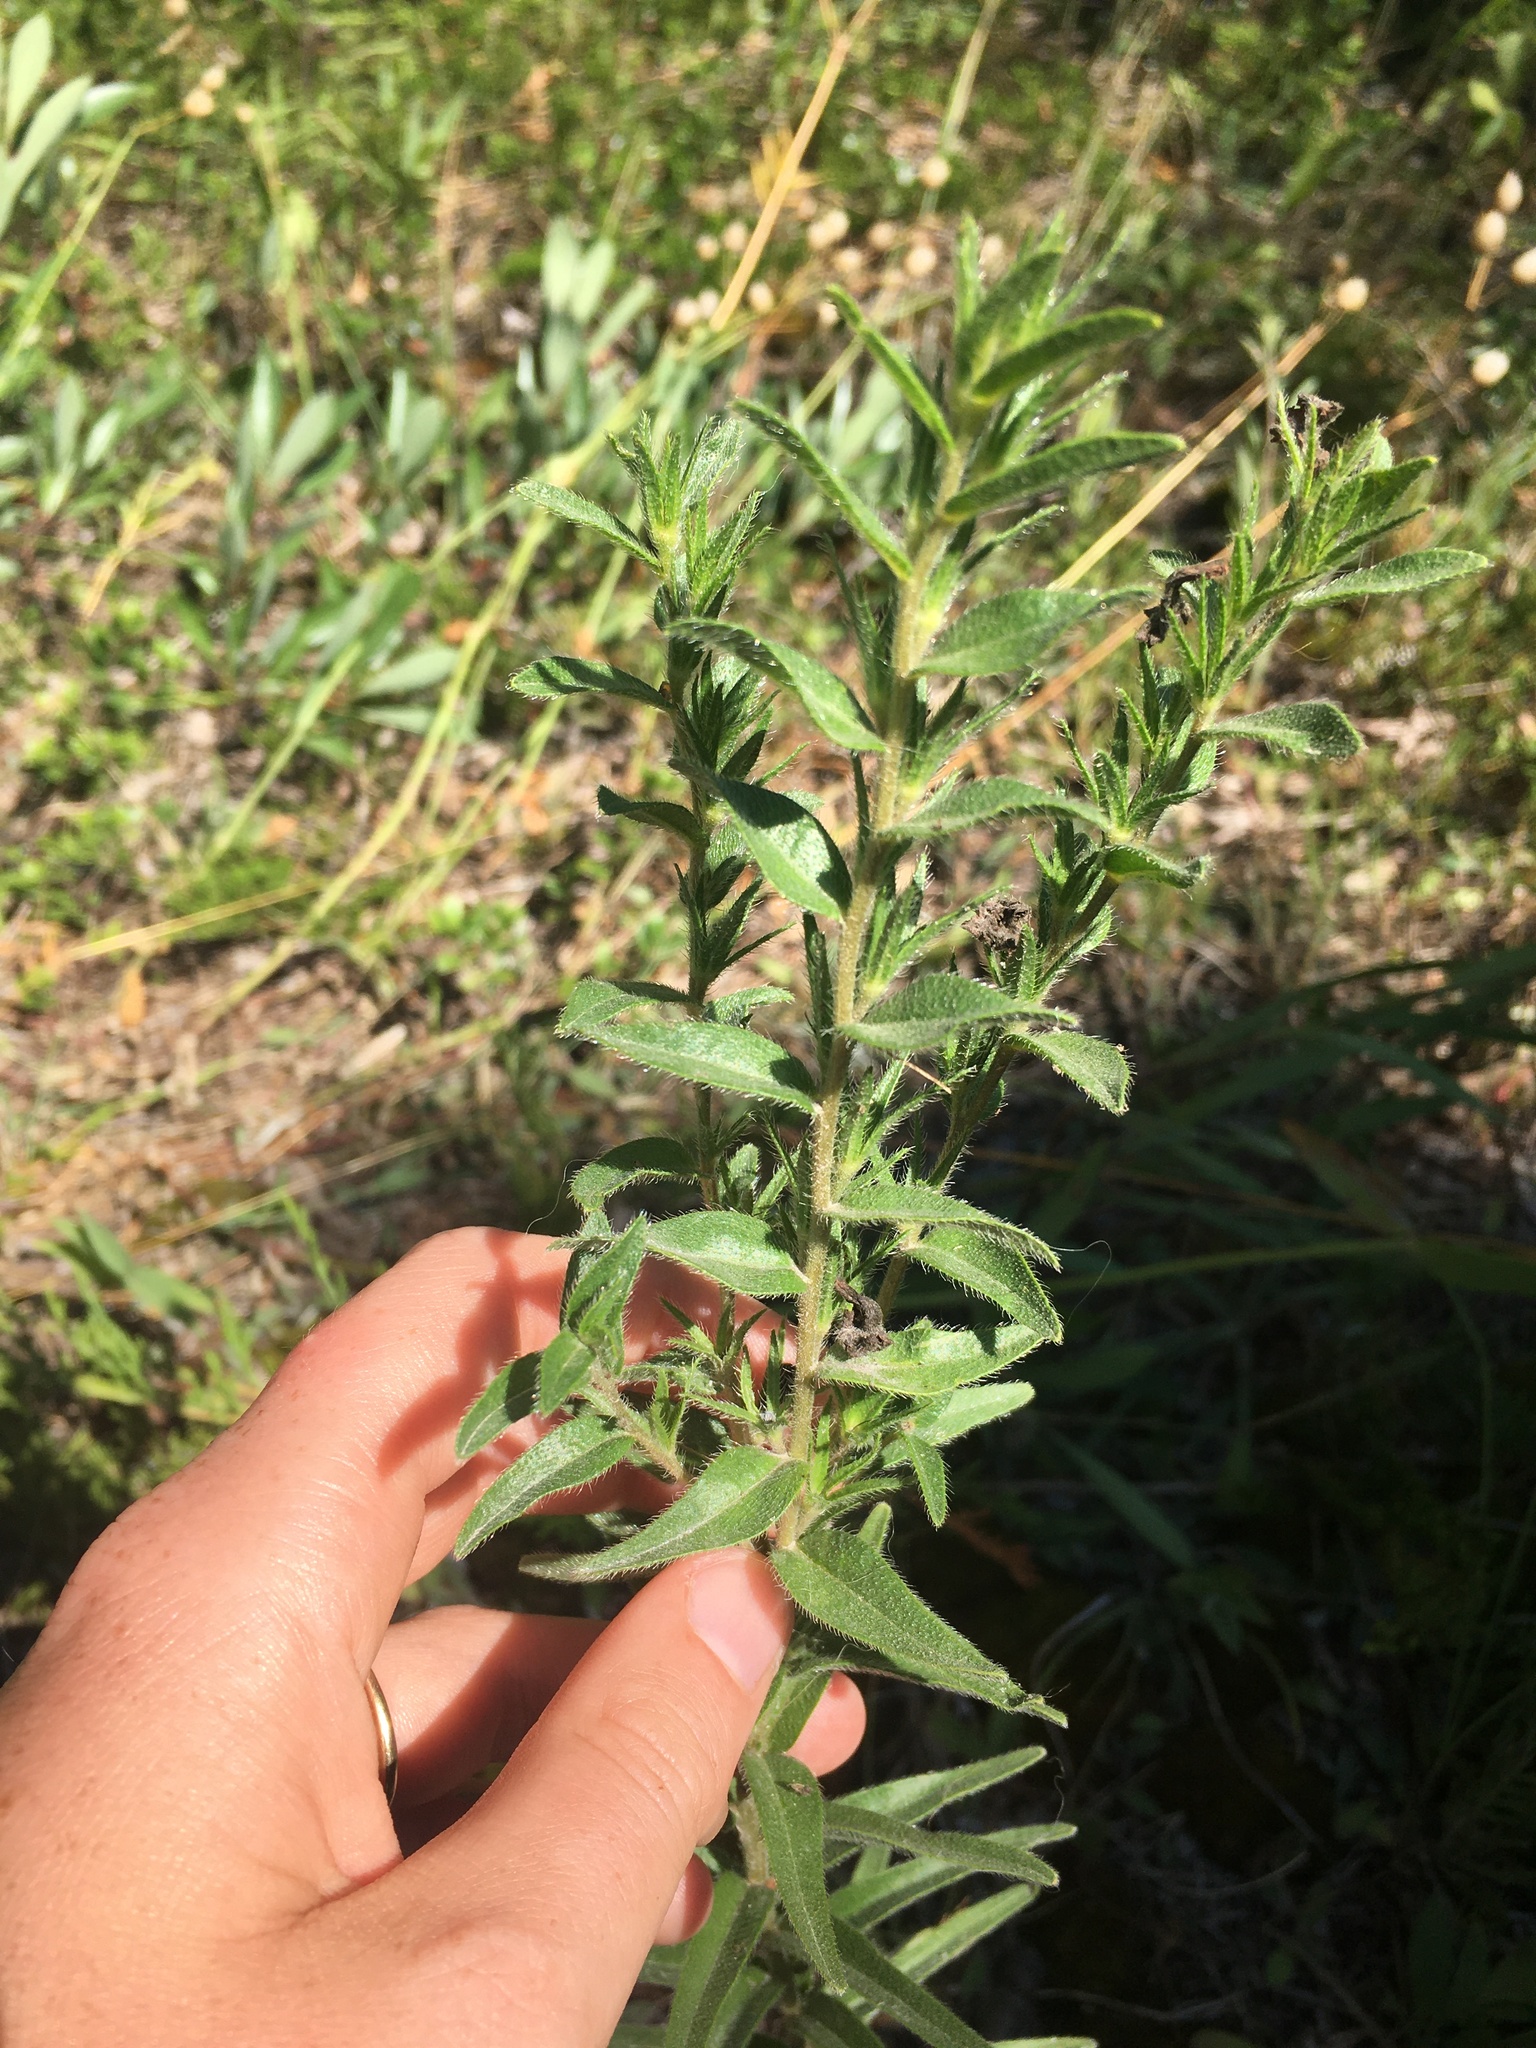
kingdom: Plantae
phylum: Tracheophyta
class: Magnoliopsida
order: Boraginales
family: Boraginaceae
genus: Lithospermum
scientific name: Lithospermum caroliniense
